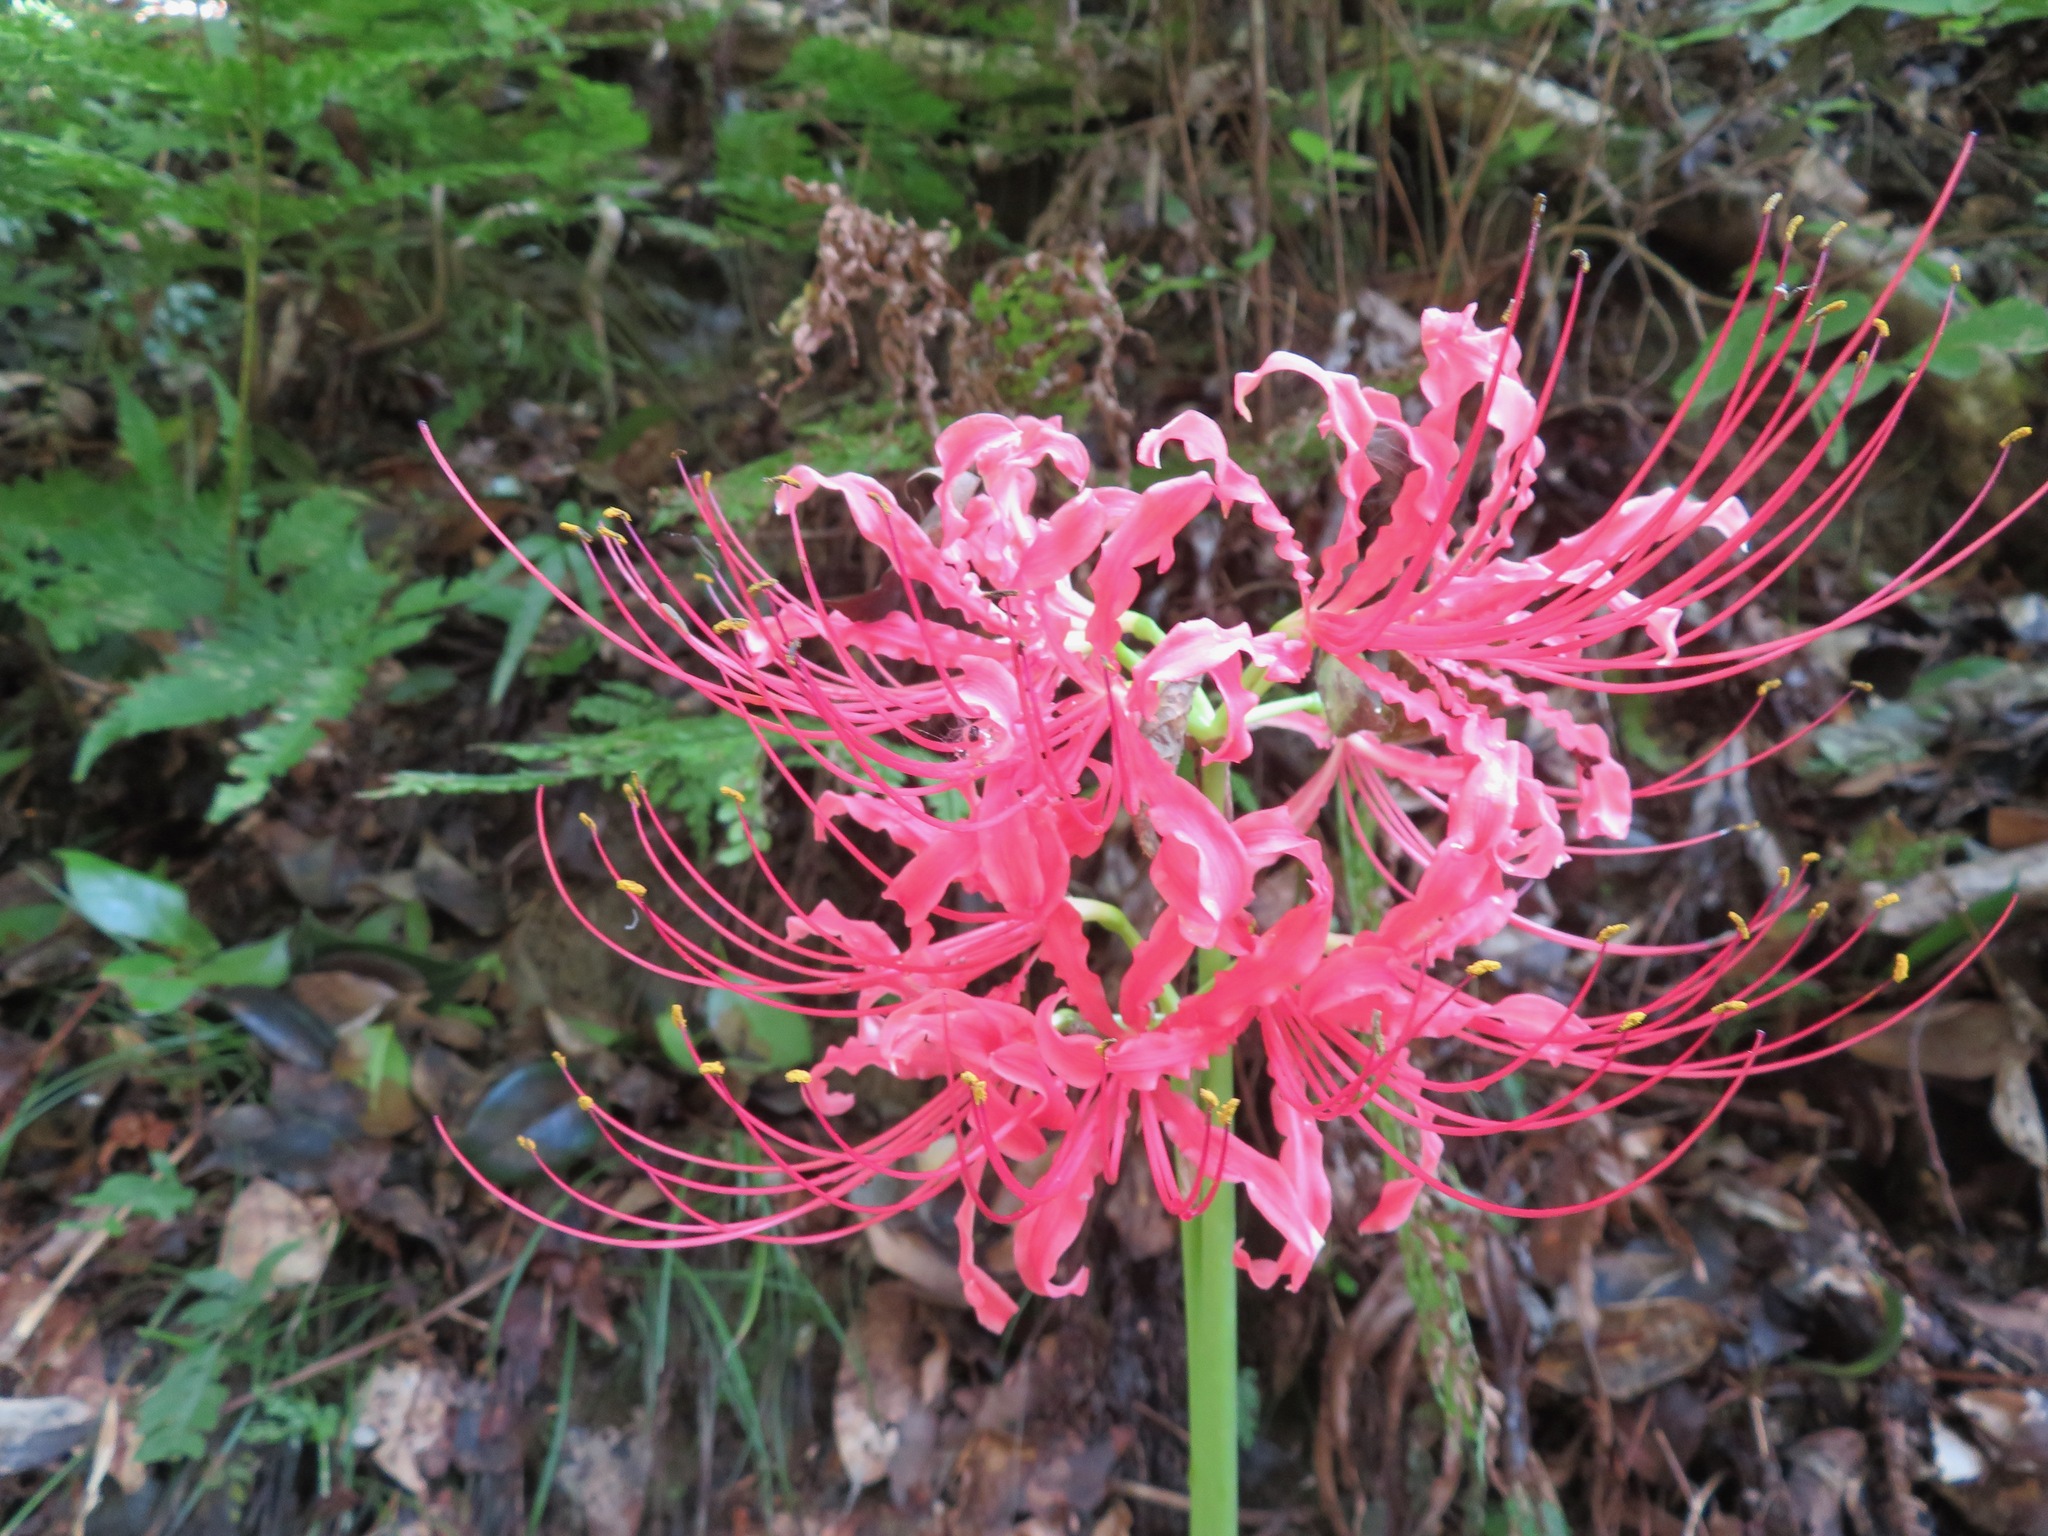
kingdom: Plantae
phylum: Tracheophyta
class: Liliopsida
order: Asparagales
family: Amaryllidaceae
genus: Lycoris
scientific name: Lycoris radiata
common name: Red spider lily
